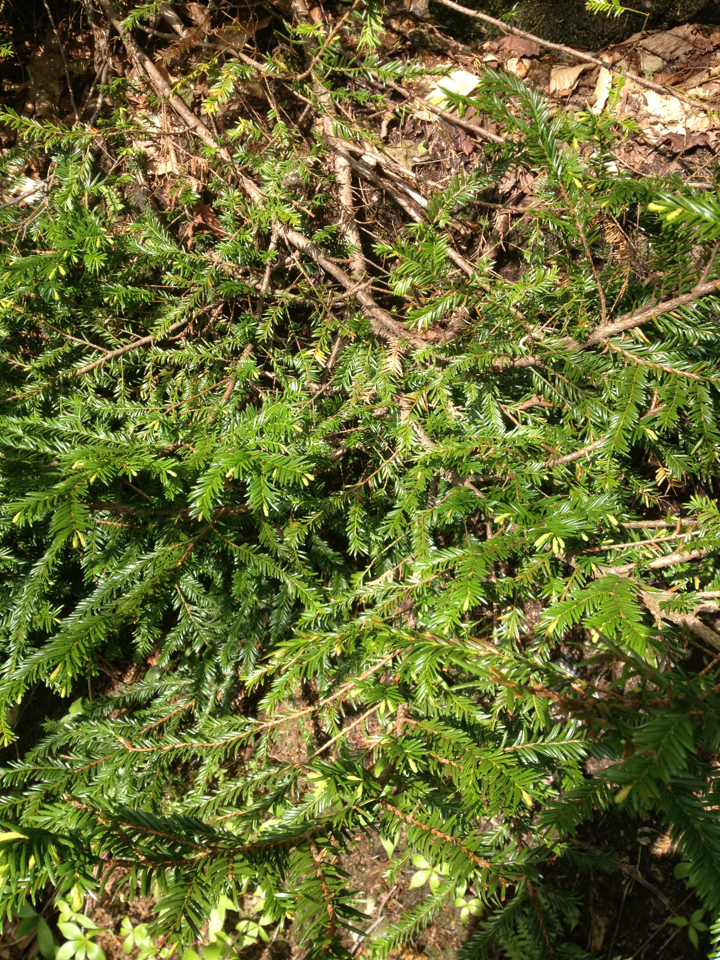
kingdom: Plantae
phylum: Tracheophyta
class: Pinopsida
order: Pinales
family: Taxaceae
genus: Taxus
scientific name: Taxus canadensis
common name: American yew
